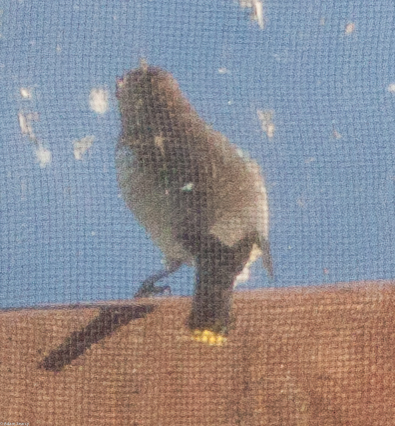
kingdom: Animalia
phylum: Chordata
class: Aves
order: Passeriformes
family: Bombycillidae
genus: Bombycilla
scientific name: Bombycilla cedrorum
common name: Cedar waxwing
